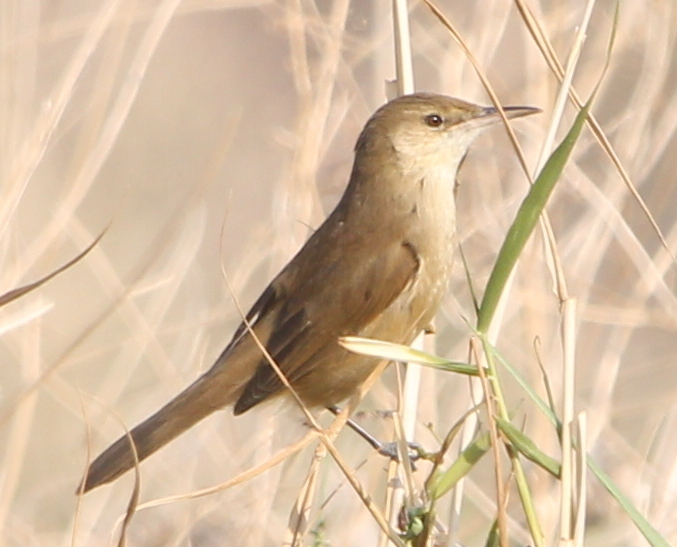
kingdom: Animalia
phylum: Chordata
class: Aves
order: Passeriformes
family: Acrocephalidae
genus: Acrocephalus
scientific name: Acrocephalus stentoreus
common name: Clamorous reed warbler
